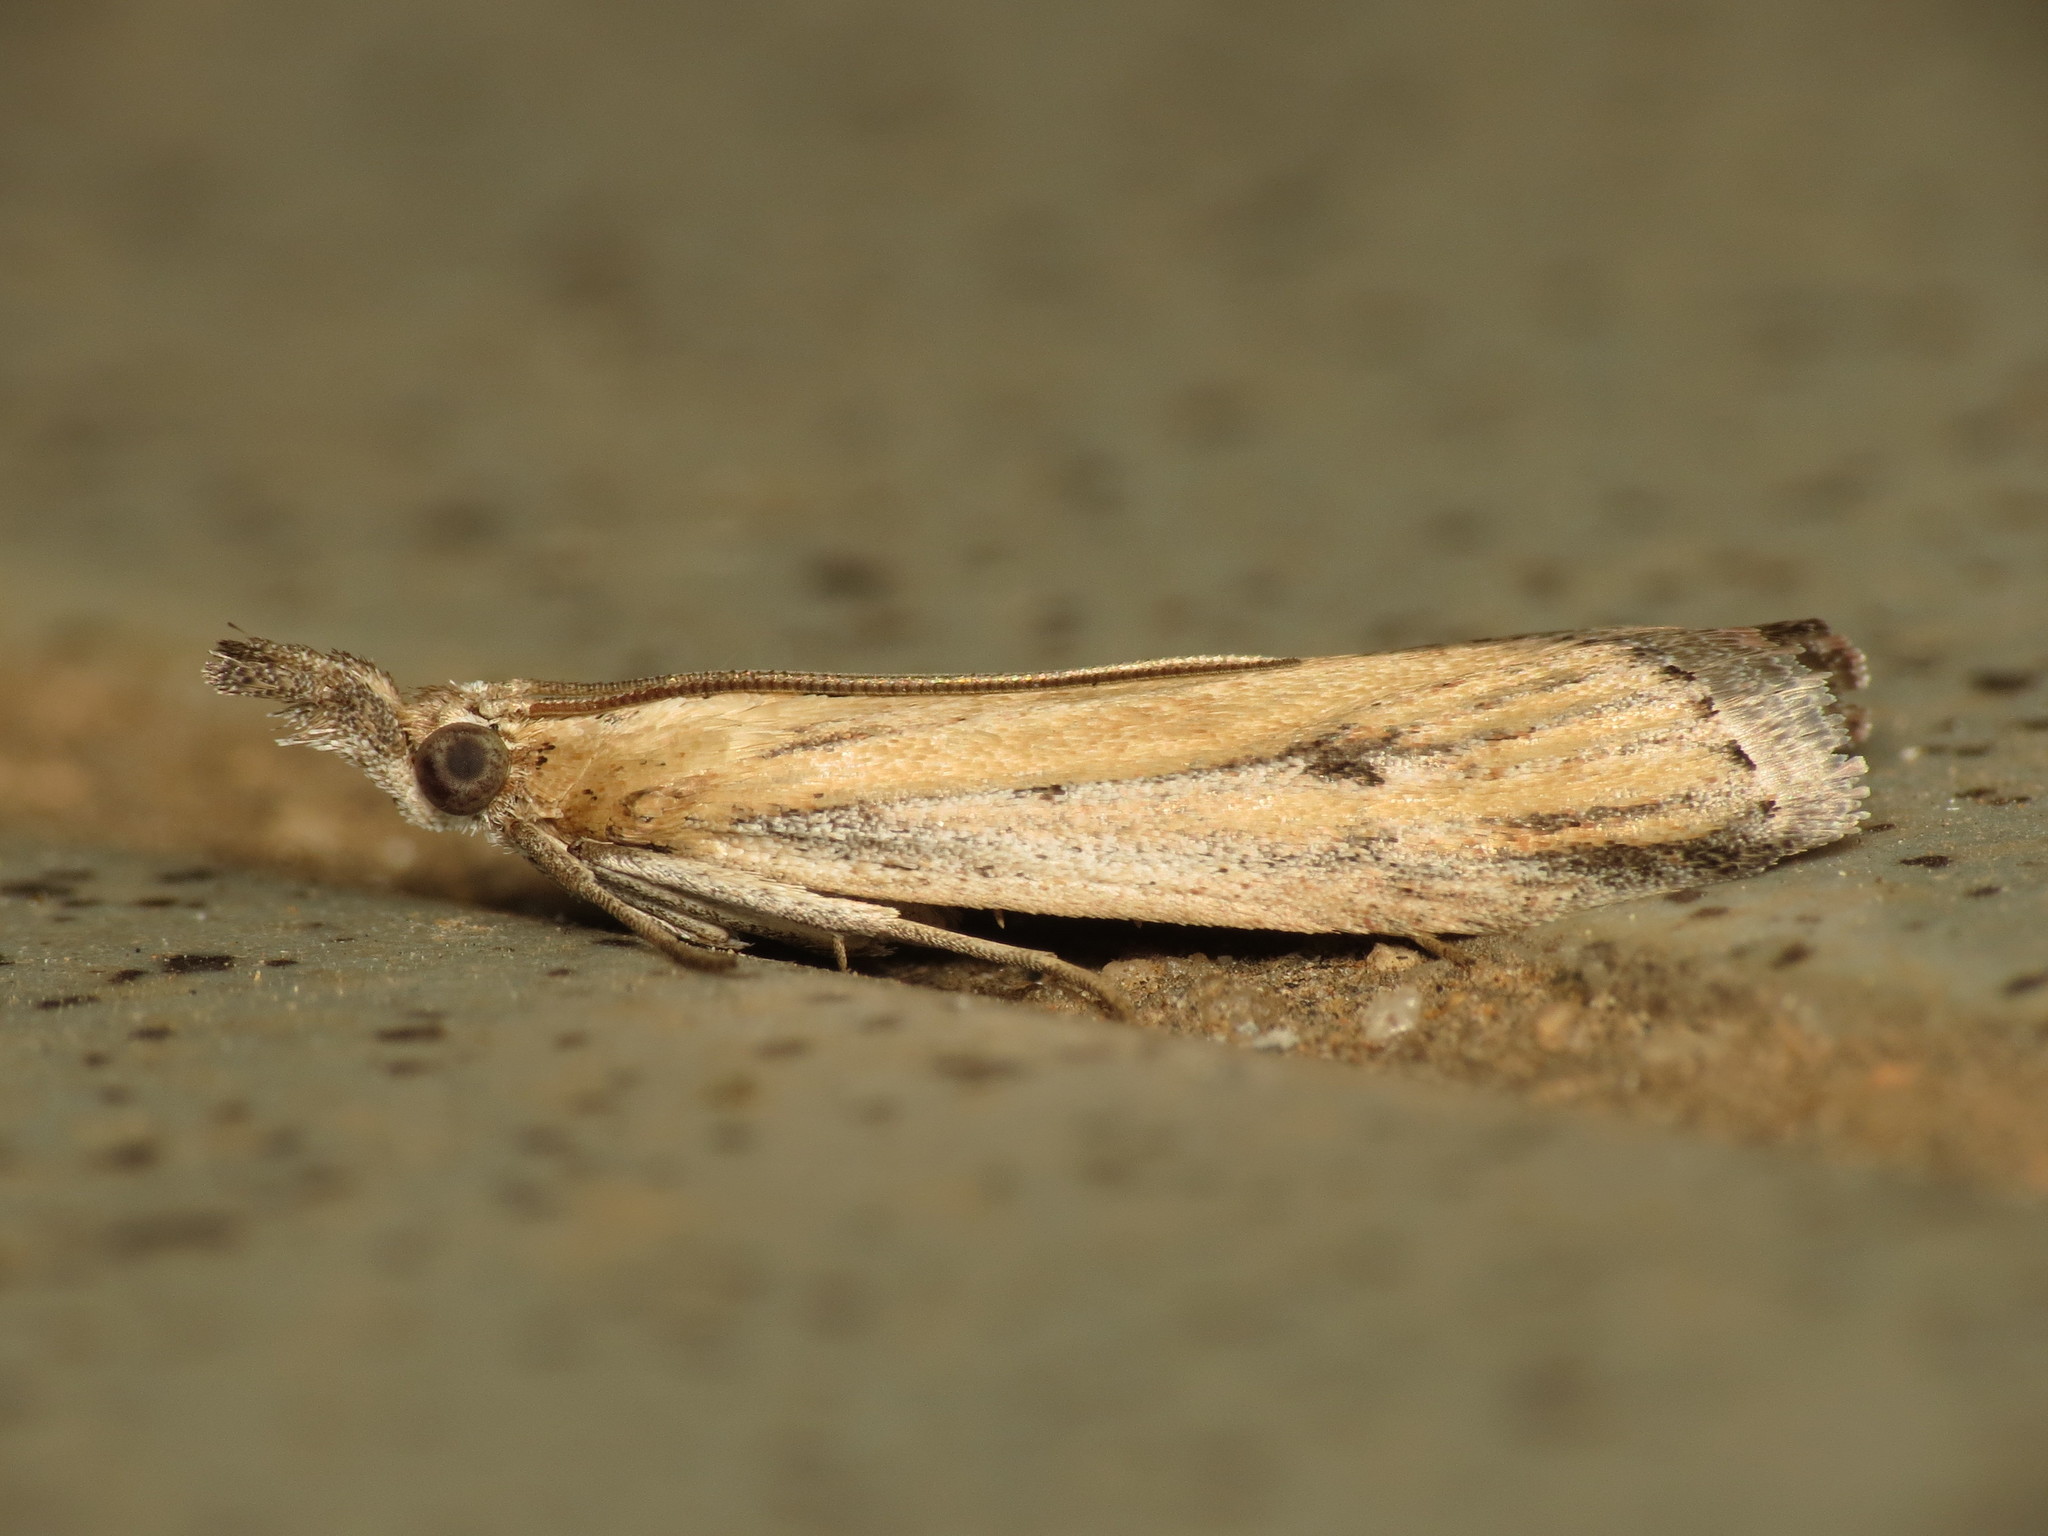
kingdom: Animalia
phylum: Arthropoda
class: Insecta
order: Lepidoptera
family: Pyralidae
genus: Faveria
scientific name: Faveria tritalis
